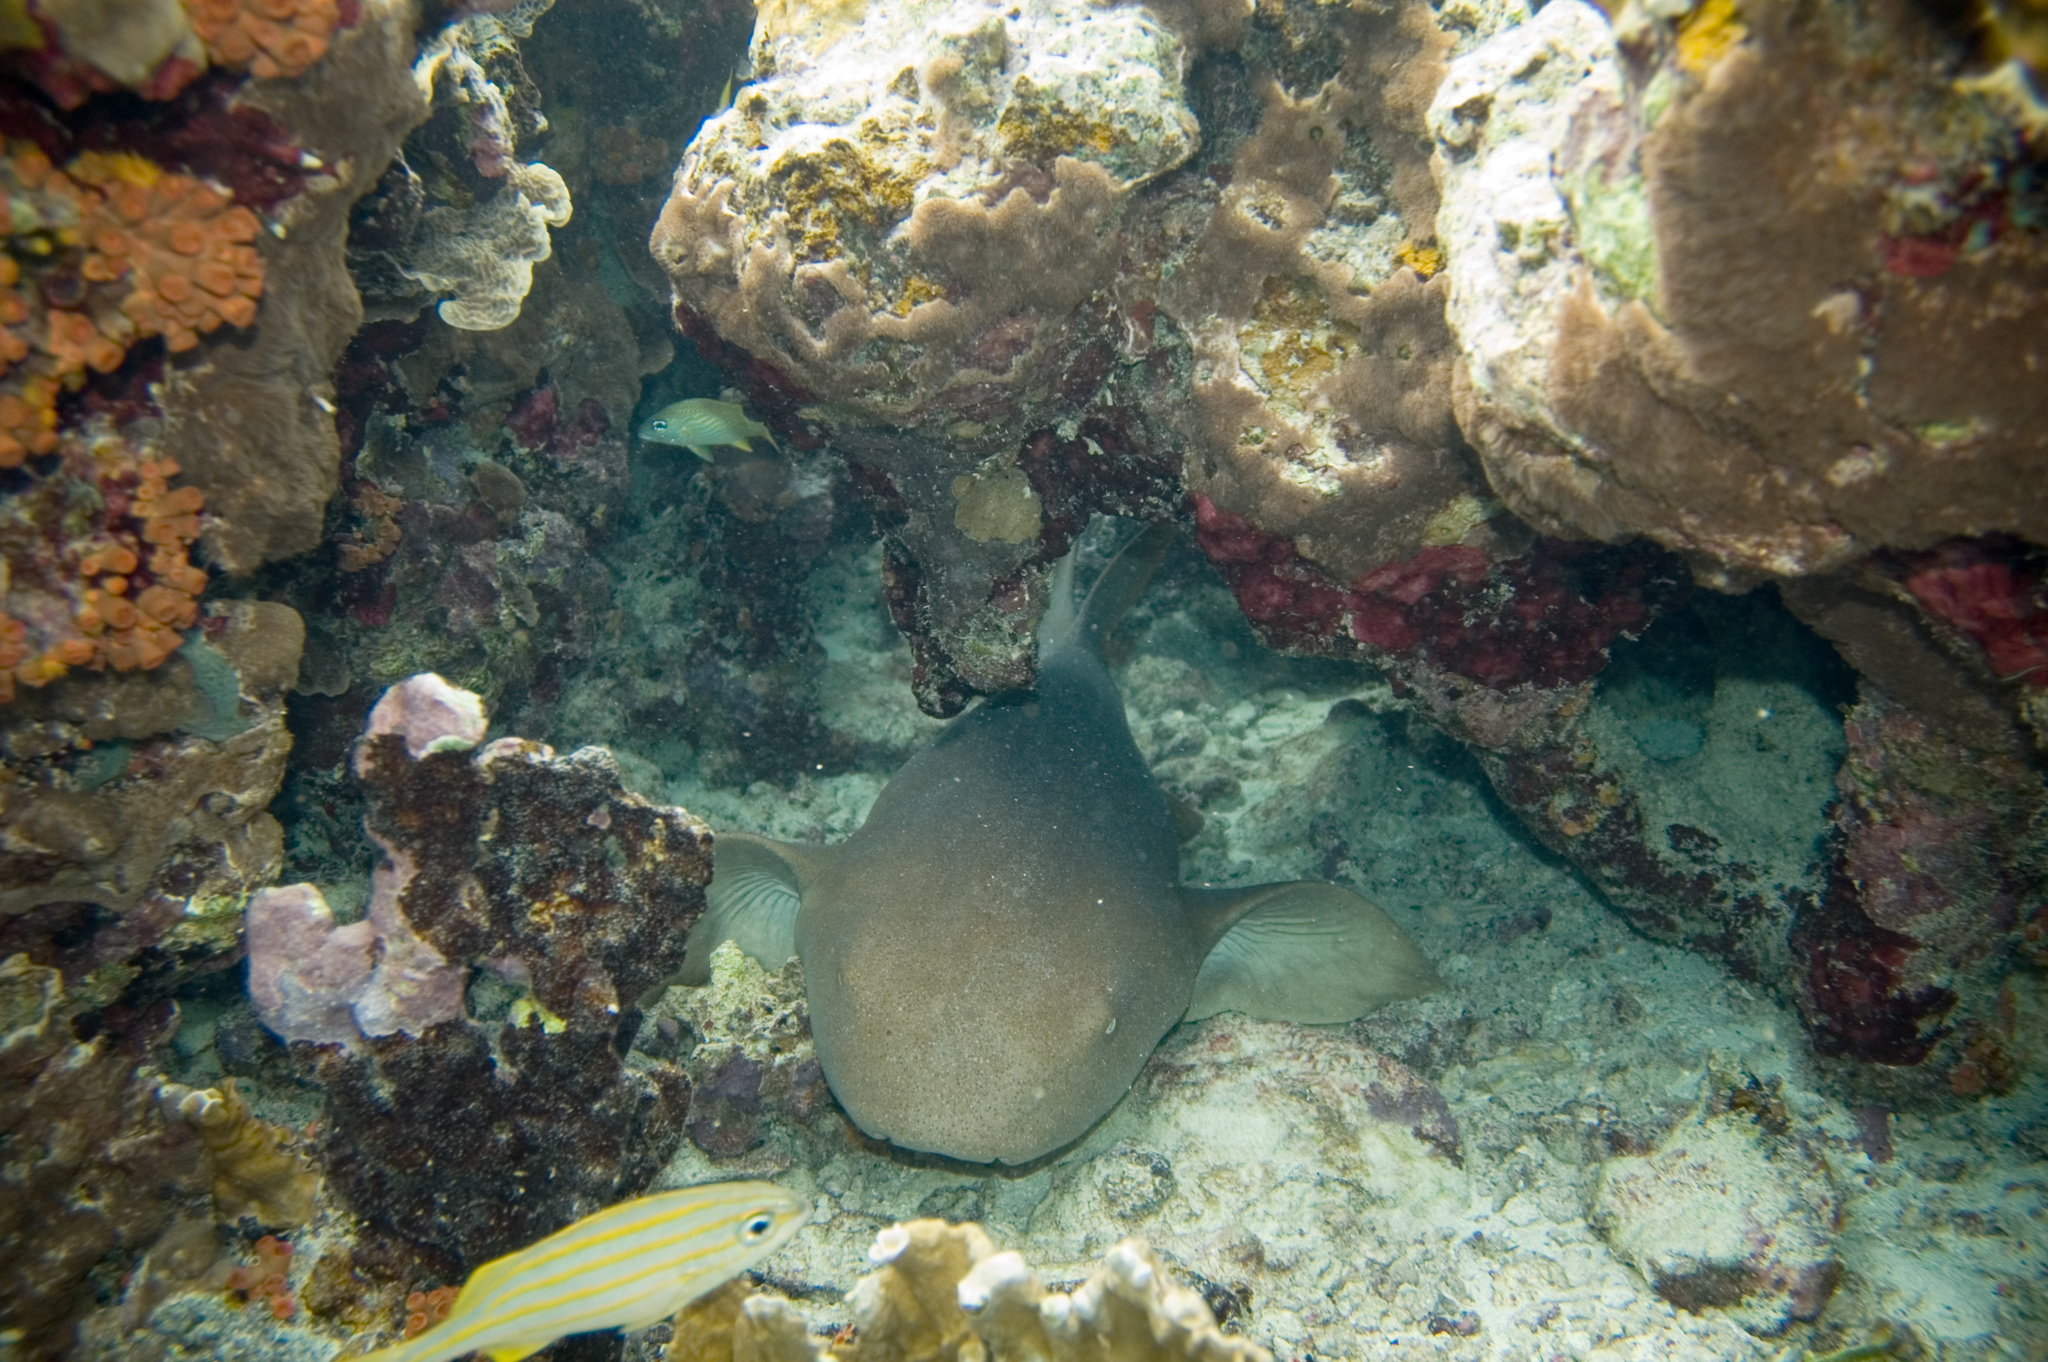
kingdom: Animalia
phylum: Chordata
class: Elasmobranchii
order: Orectolobiformes
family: Ginglymostomatidae
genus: Ginglymostoma
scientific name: Ginglymostoma cirratum
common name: Nurse shark
